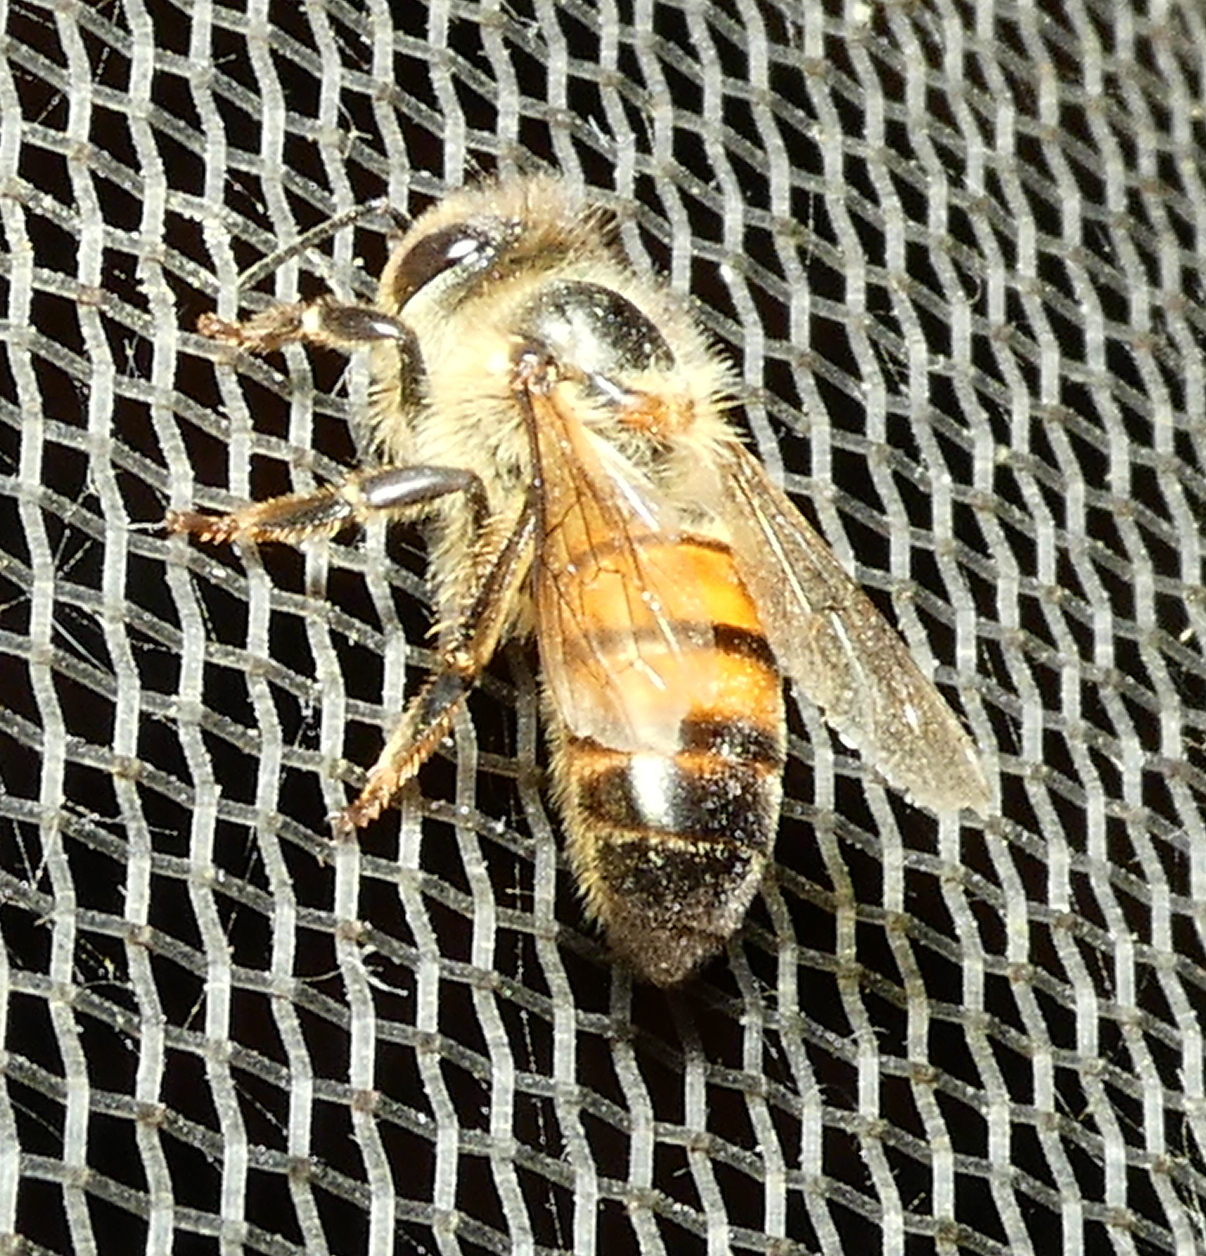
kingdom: Animalia
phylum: Arthropoda
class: Insecta
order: Hymenoptera
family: Apidae
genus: Apis
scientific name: Apis mellifera
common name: Honey bee
